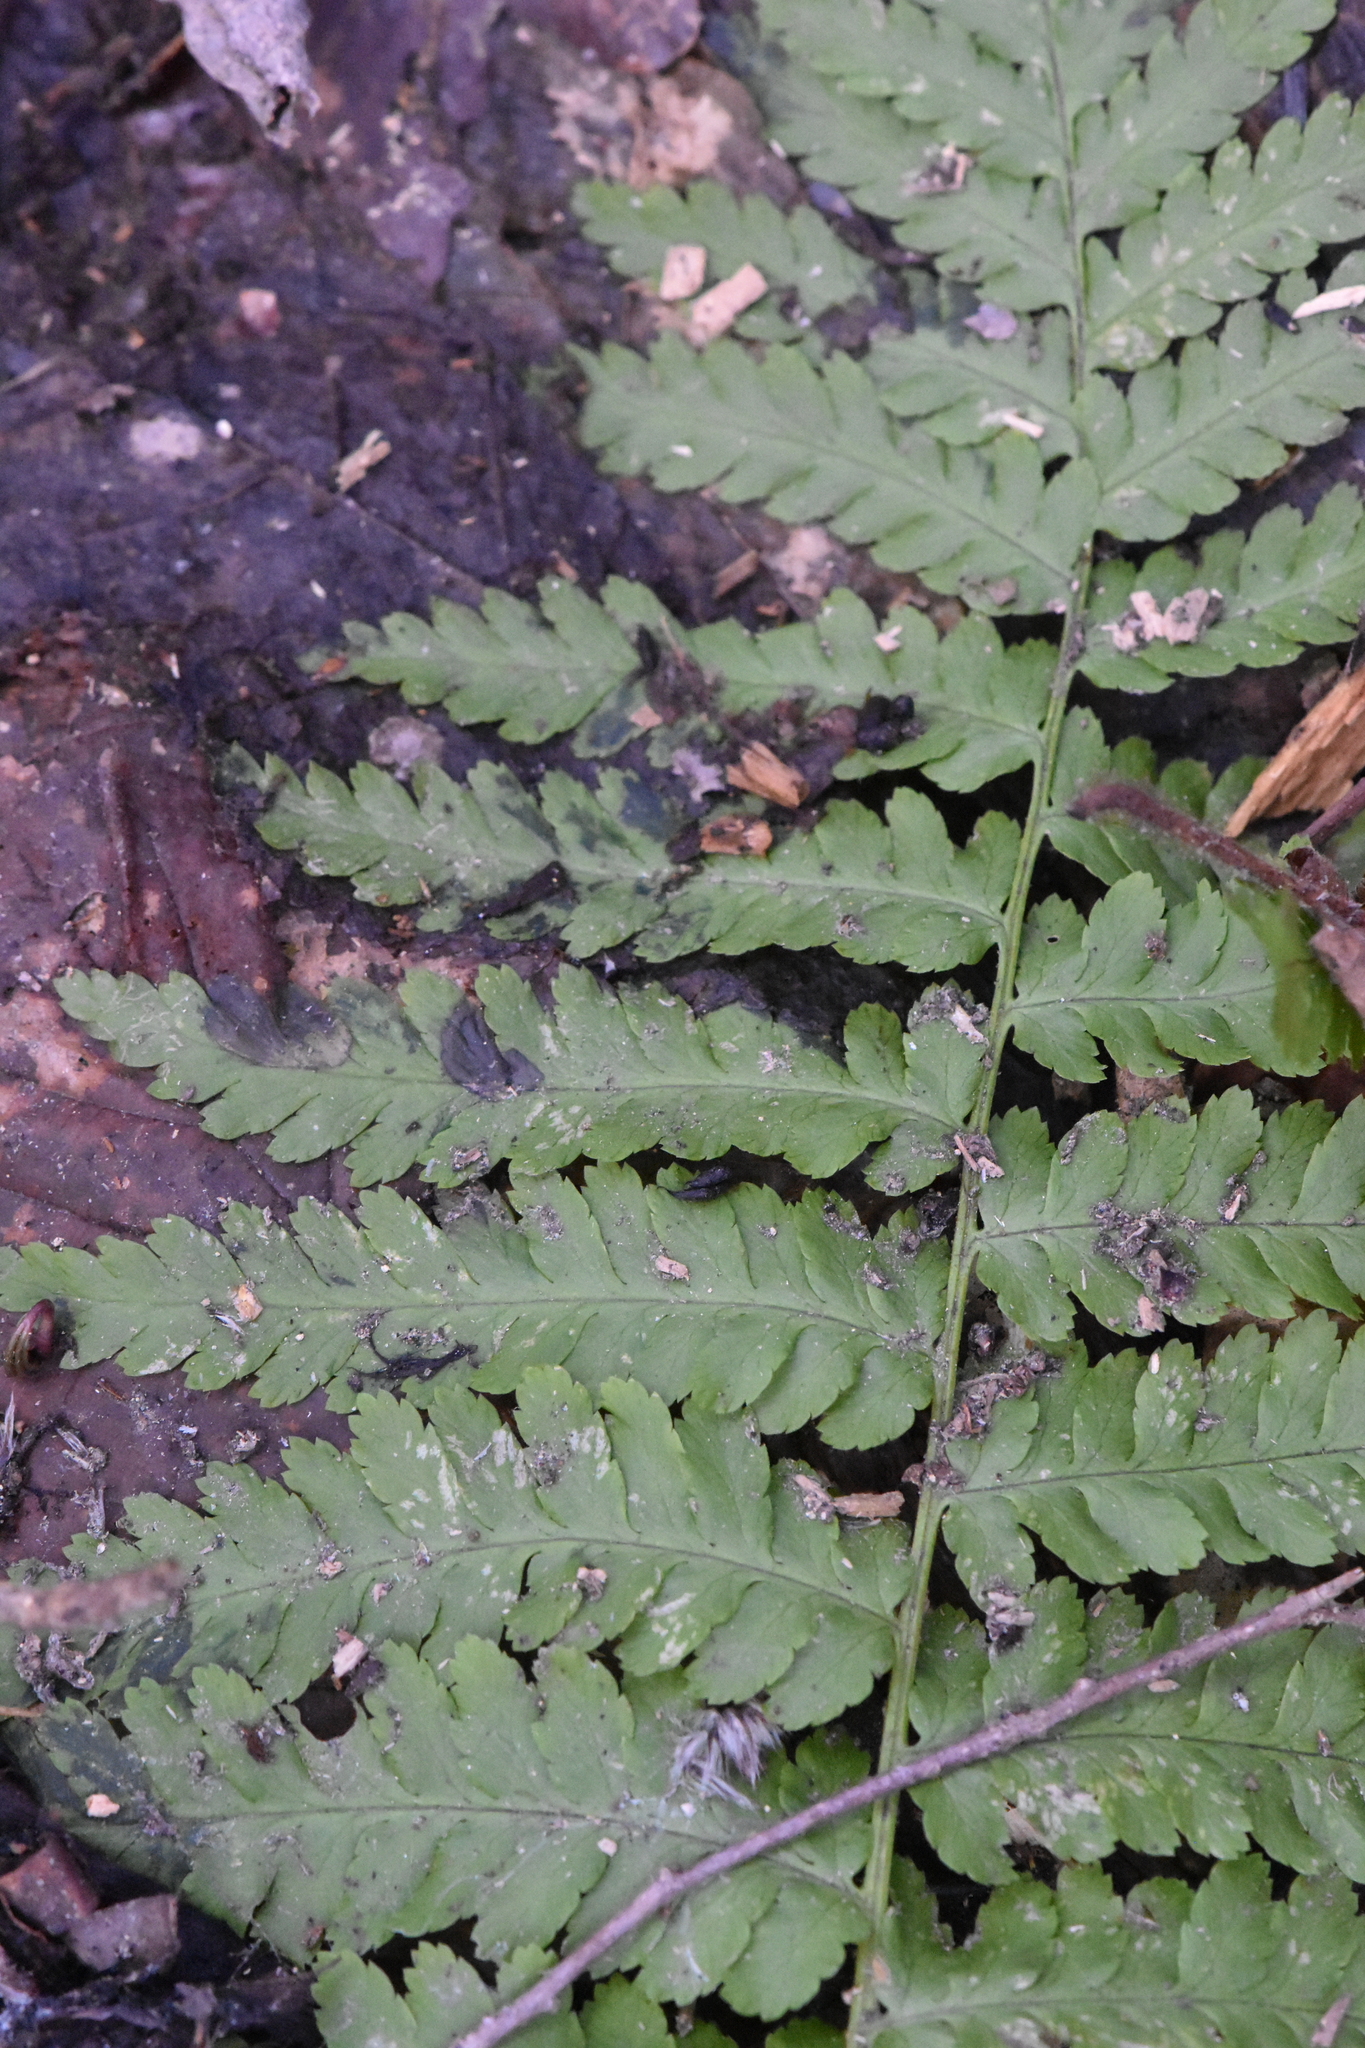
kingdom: Plantae
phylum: Tracheophyta
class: Polypodiopsida
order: Polypodiales
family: Dryopteridaceae
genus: Dryopteris
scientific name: Dryopteris filix-mas
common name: Male fern
